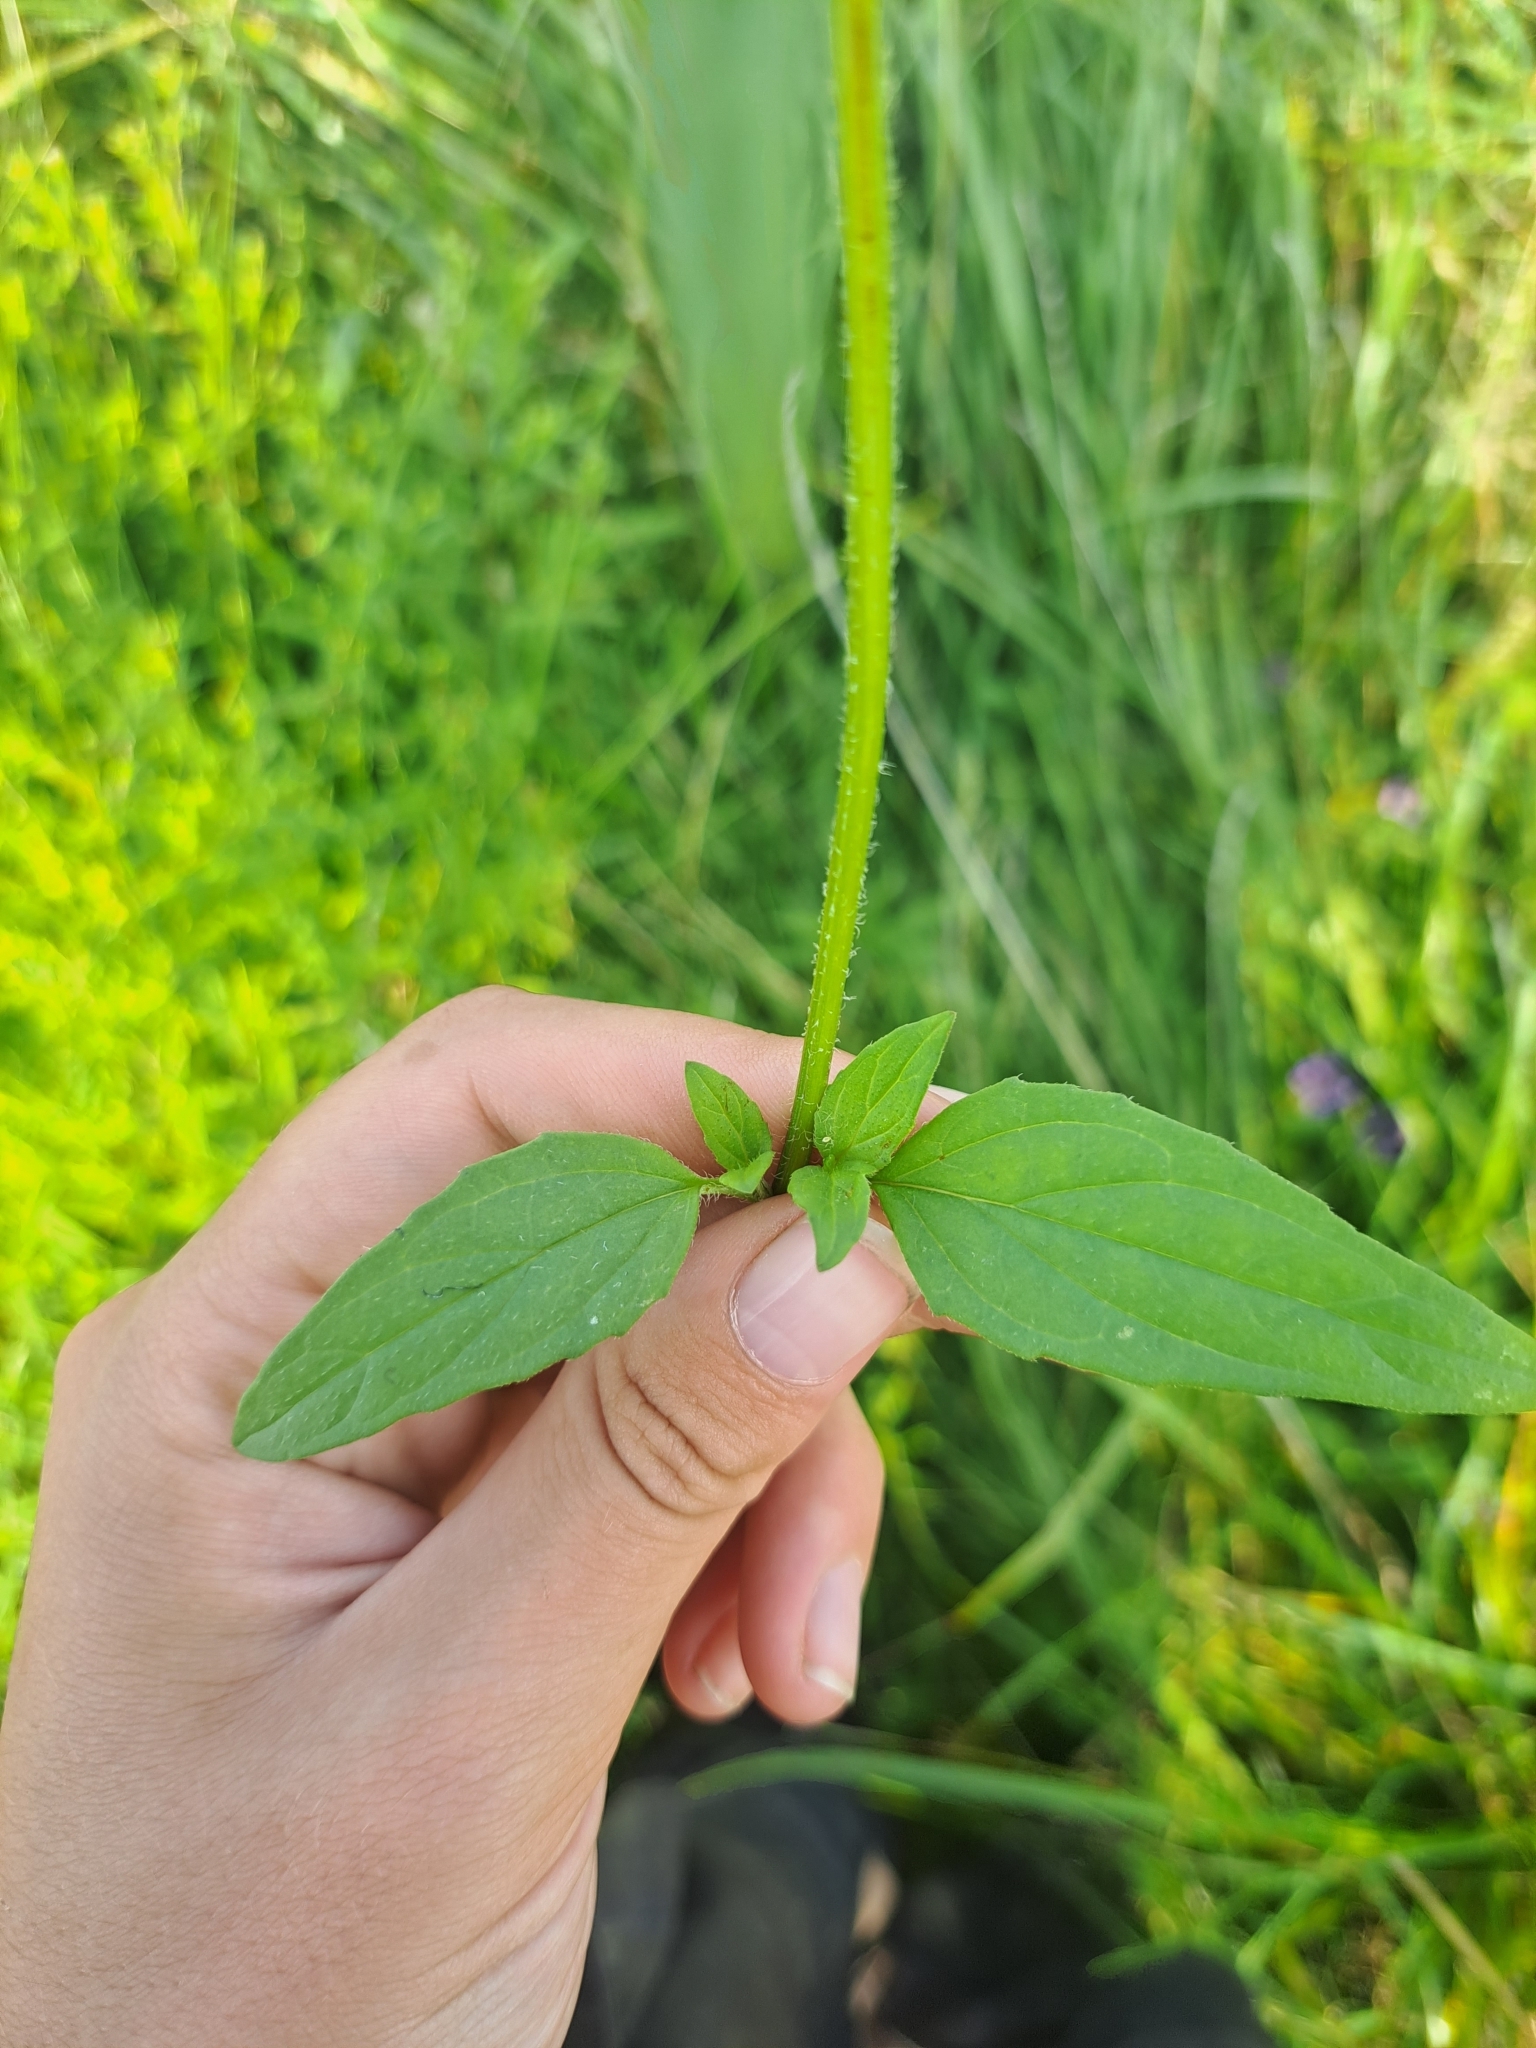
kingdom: Plantae
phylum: Tracheophyta
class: Magnoliopsida
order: Lamiales
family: Lamiaceae
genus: Prunella
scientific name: Prunella vulgaris
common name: Heal-all
